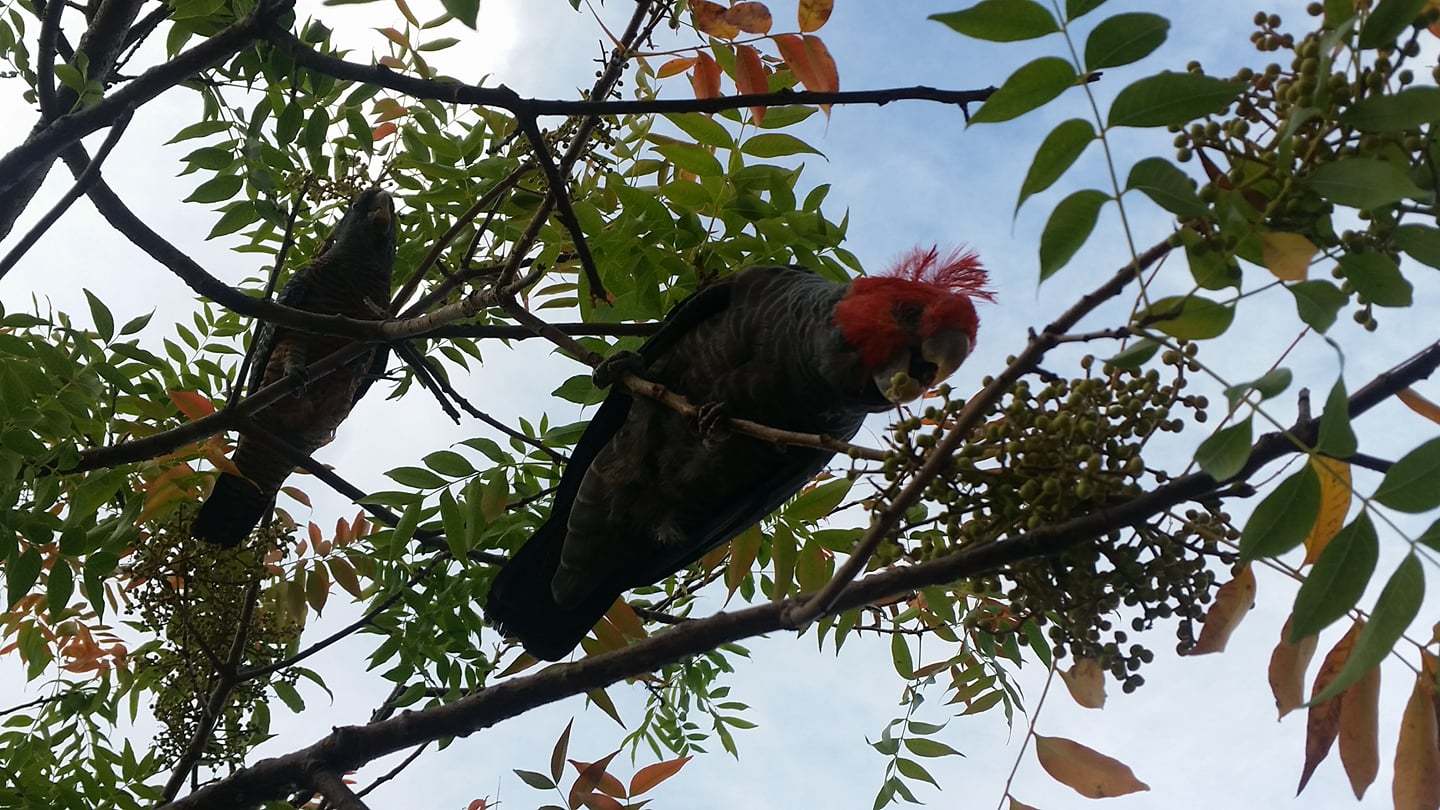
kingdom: Animalia
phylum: Chordata
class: Aves
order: Psittaciformes
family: Psittacidae
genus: Callocephalon
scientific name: Callocephalon fimbriatum
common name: Gang-gang cockatoo
